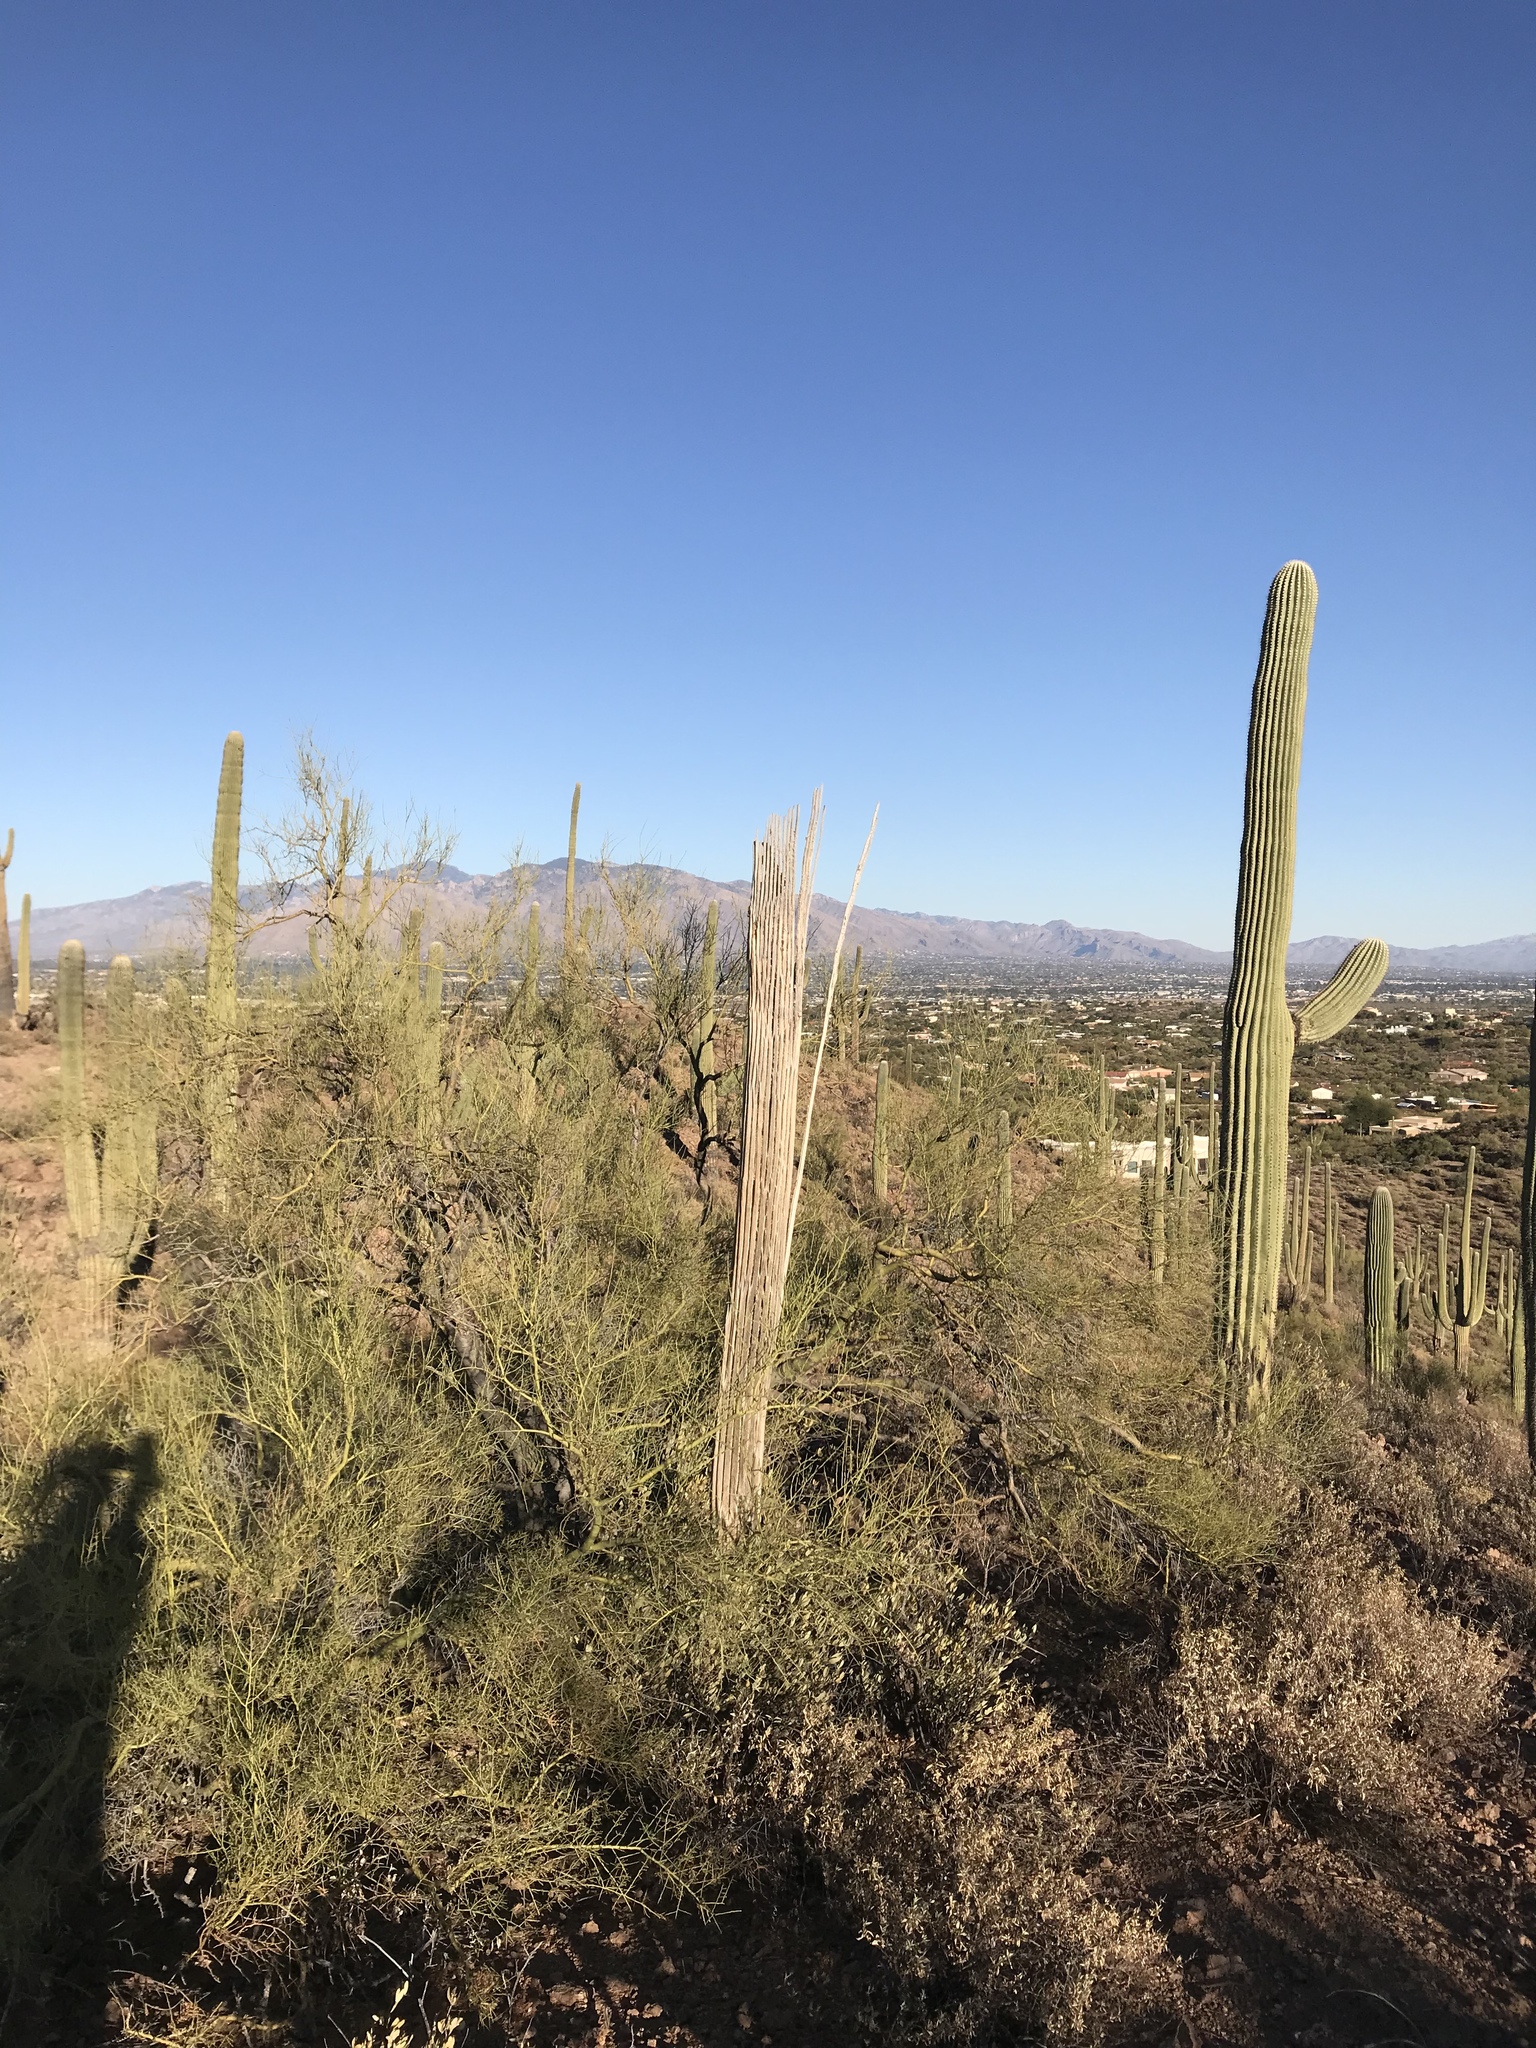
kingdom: Plantae
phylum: Tracheophyta
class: Magnoliopsida
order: Caryophyllales
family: Cactaceae
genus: Carnegiea
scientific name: Carnegiea gigantea
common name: Saguaro
